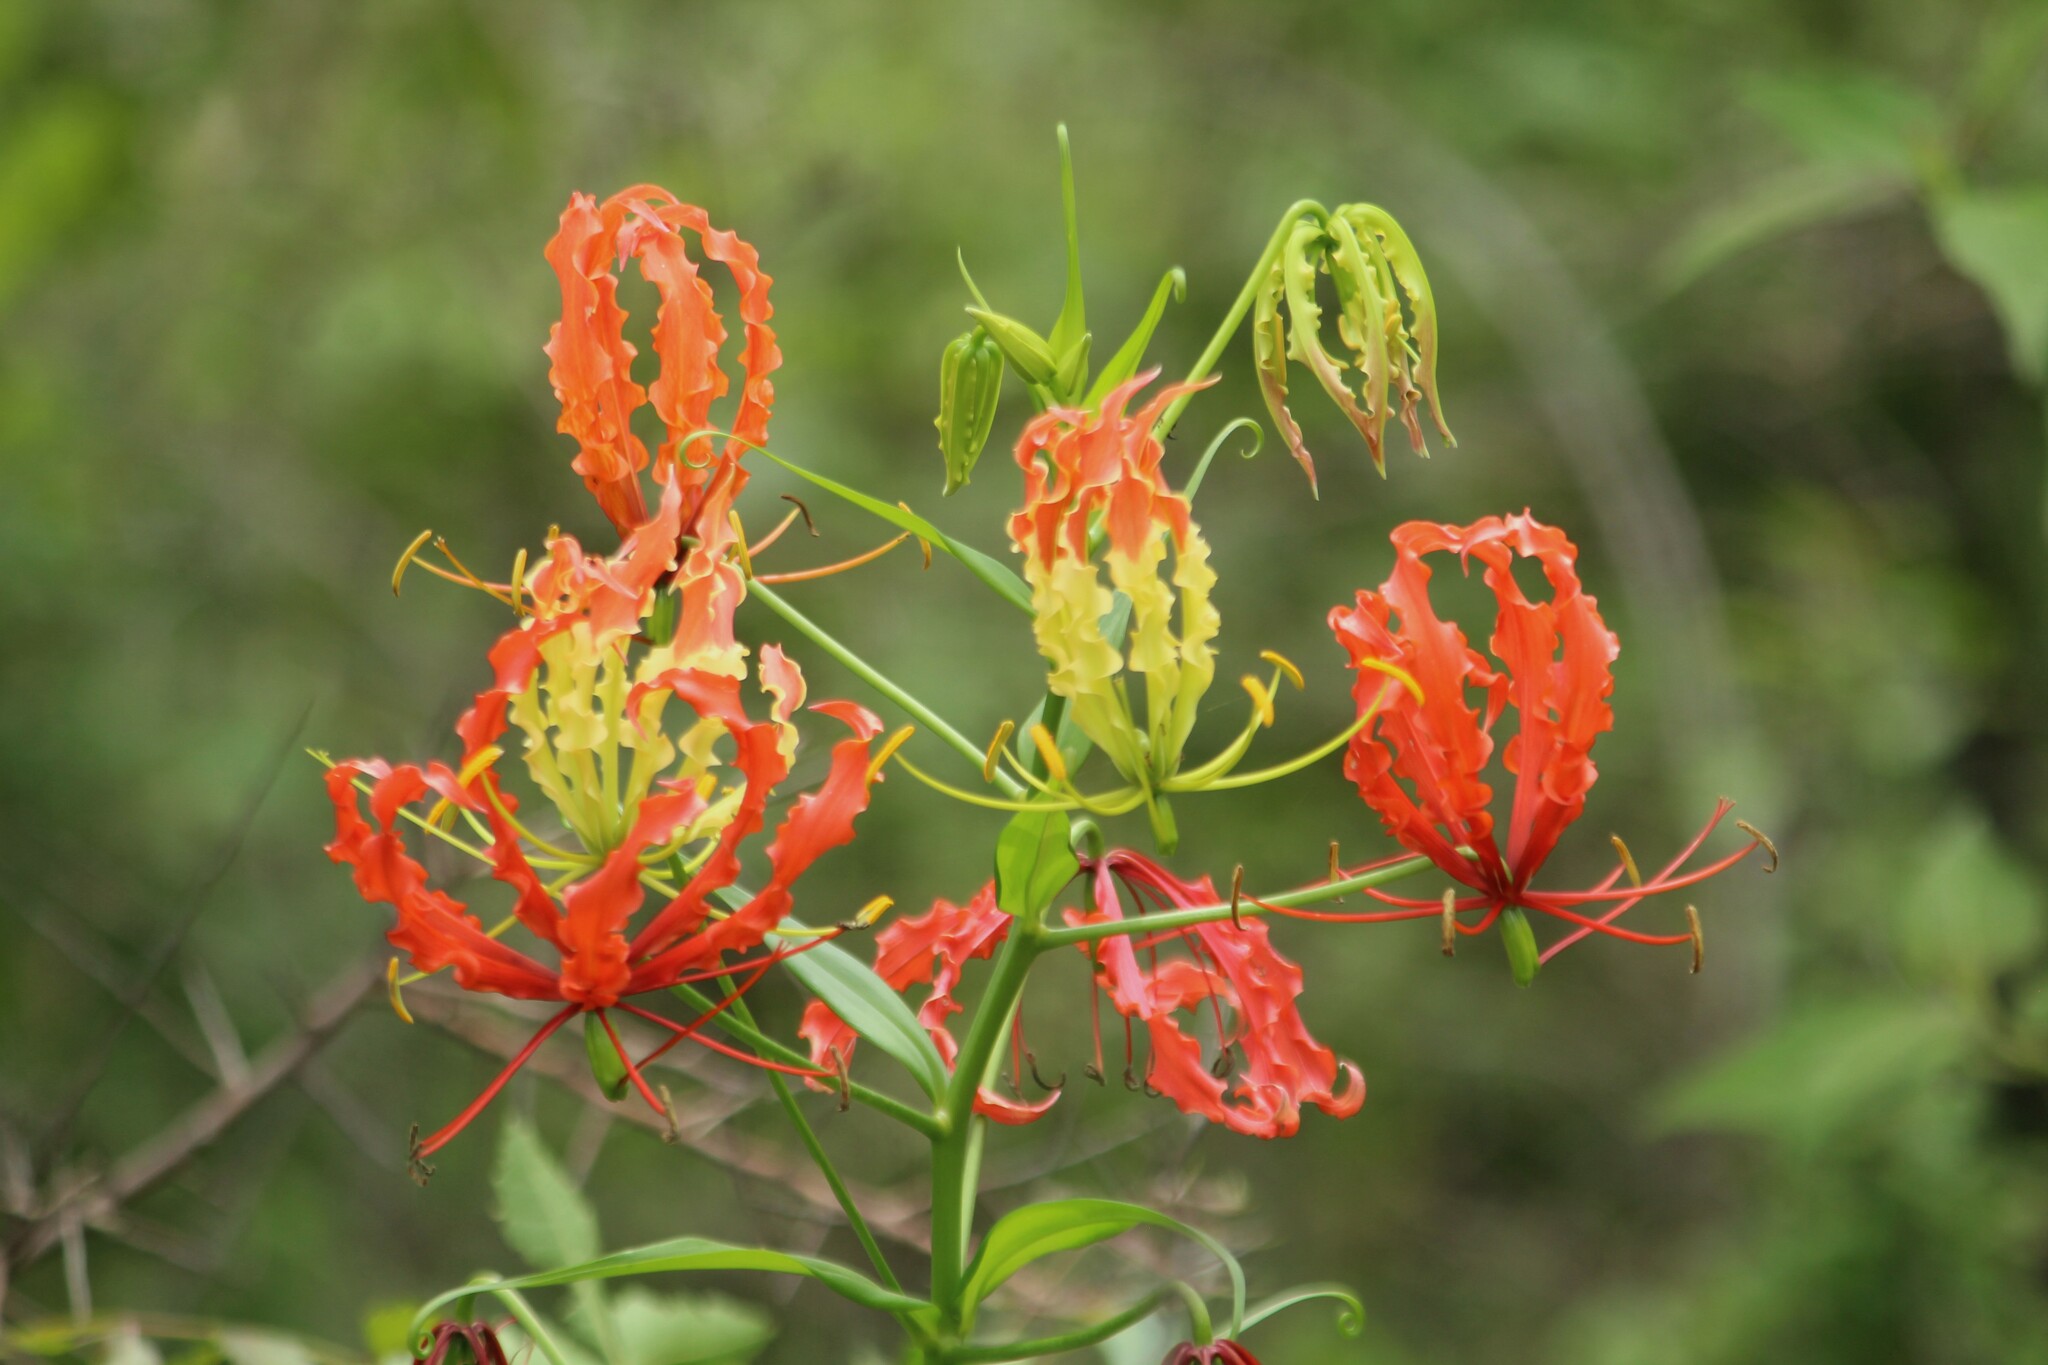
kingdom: Plantae
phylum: Tracheophyta
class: Liliopsida
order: Liliales
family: Colchicaceae
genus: Gloriosa
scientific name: Gloriosa superba
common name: Flame lily
